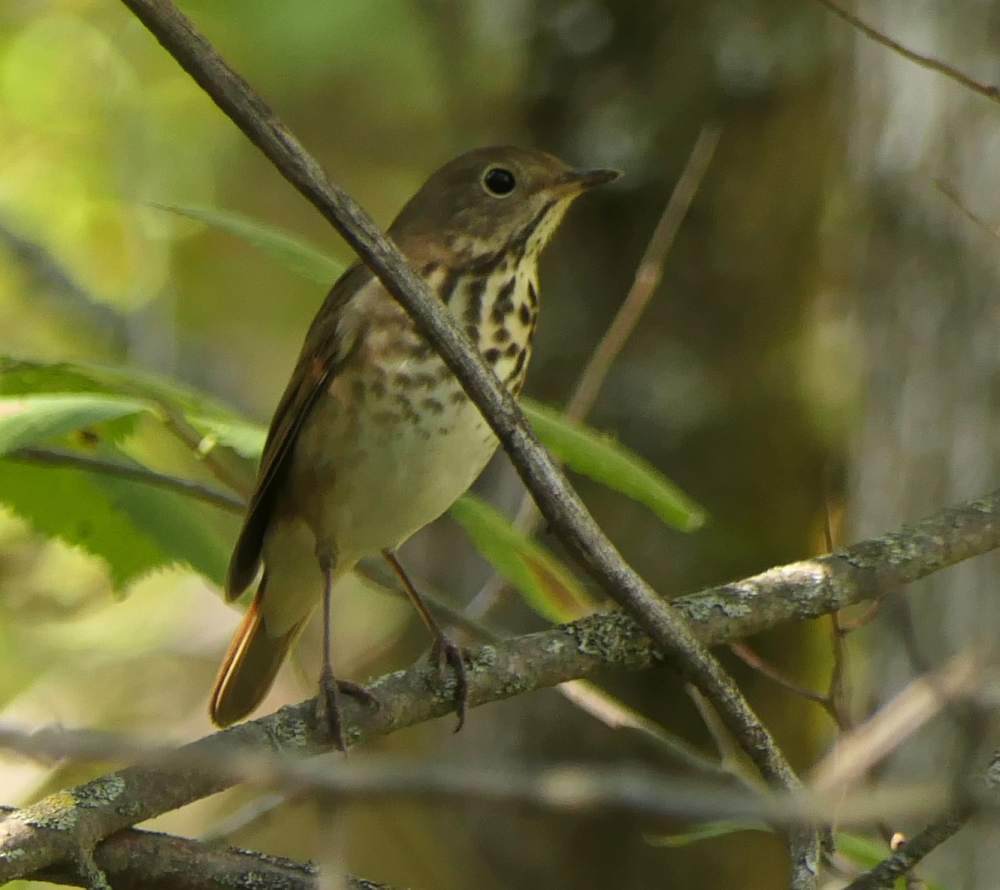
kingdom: Animalia
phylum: Chordata
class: Aves
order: Passeriformes
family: Turdidae
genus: Catharus
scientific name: Catharus guttatus
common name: Hermit thrush
